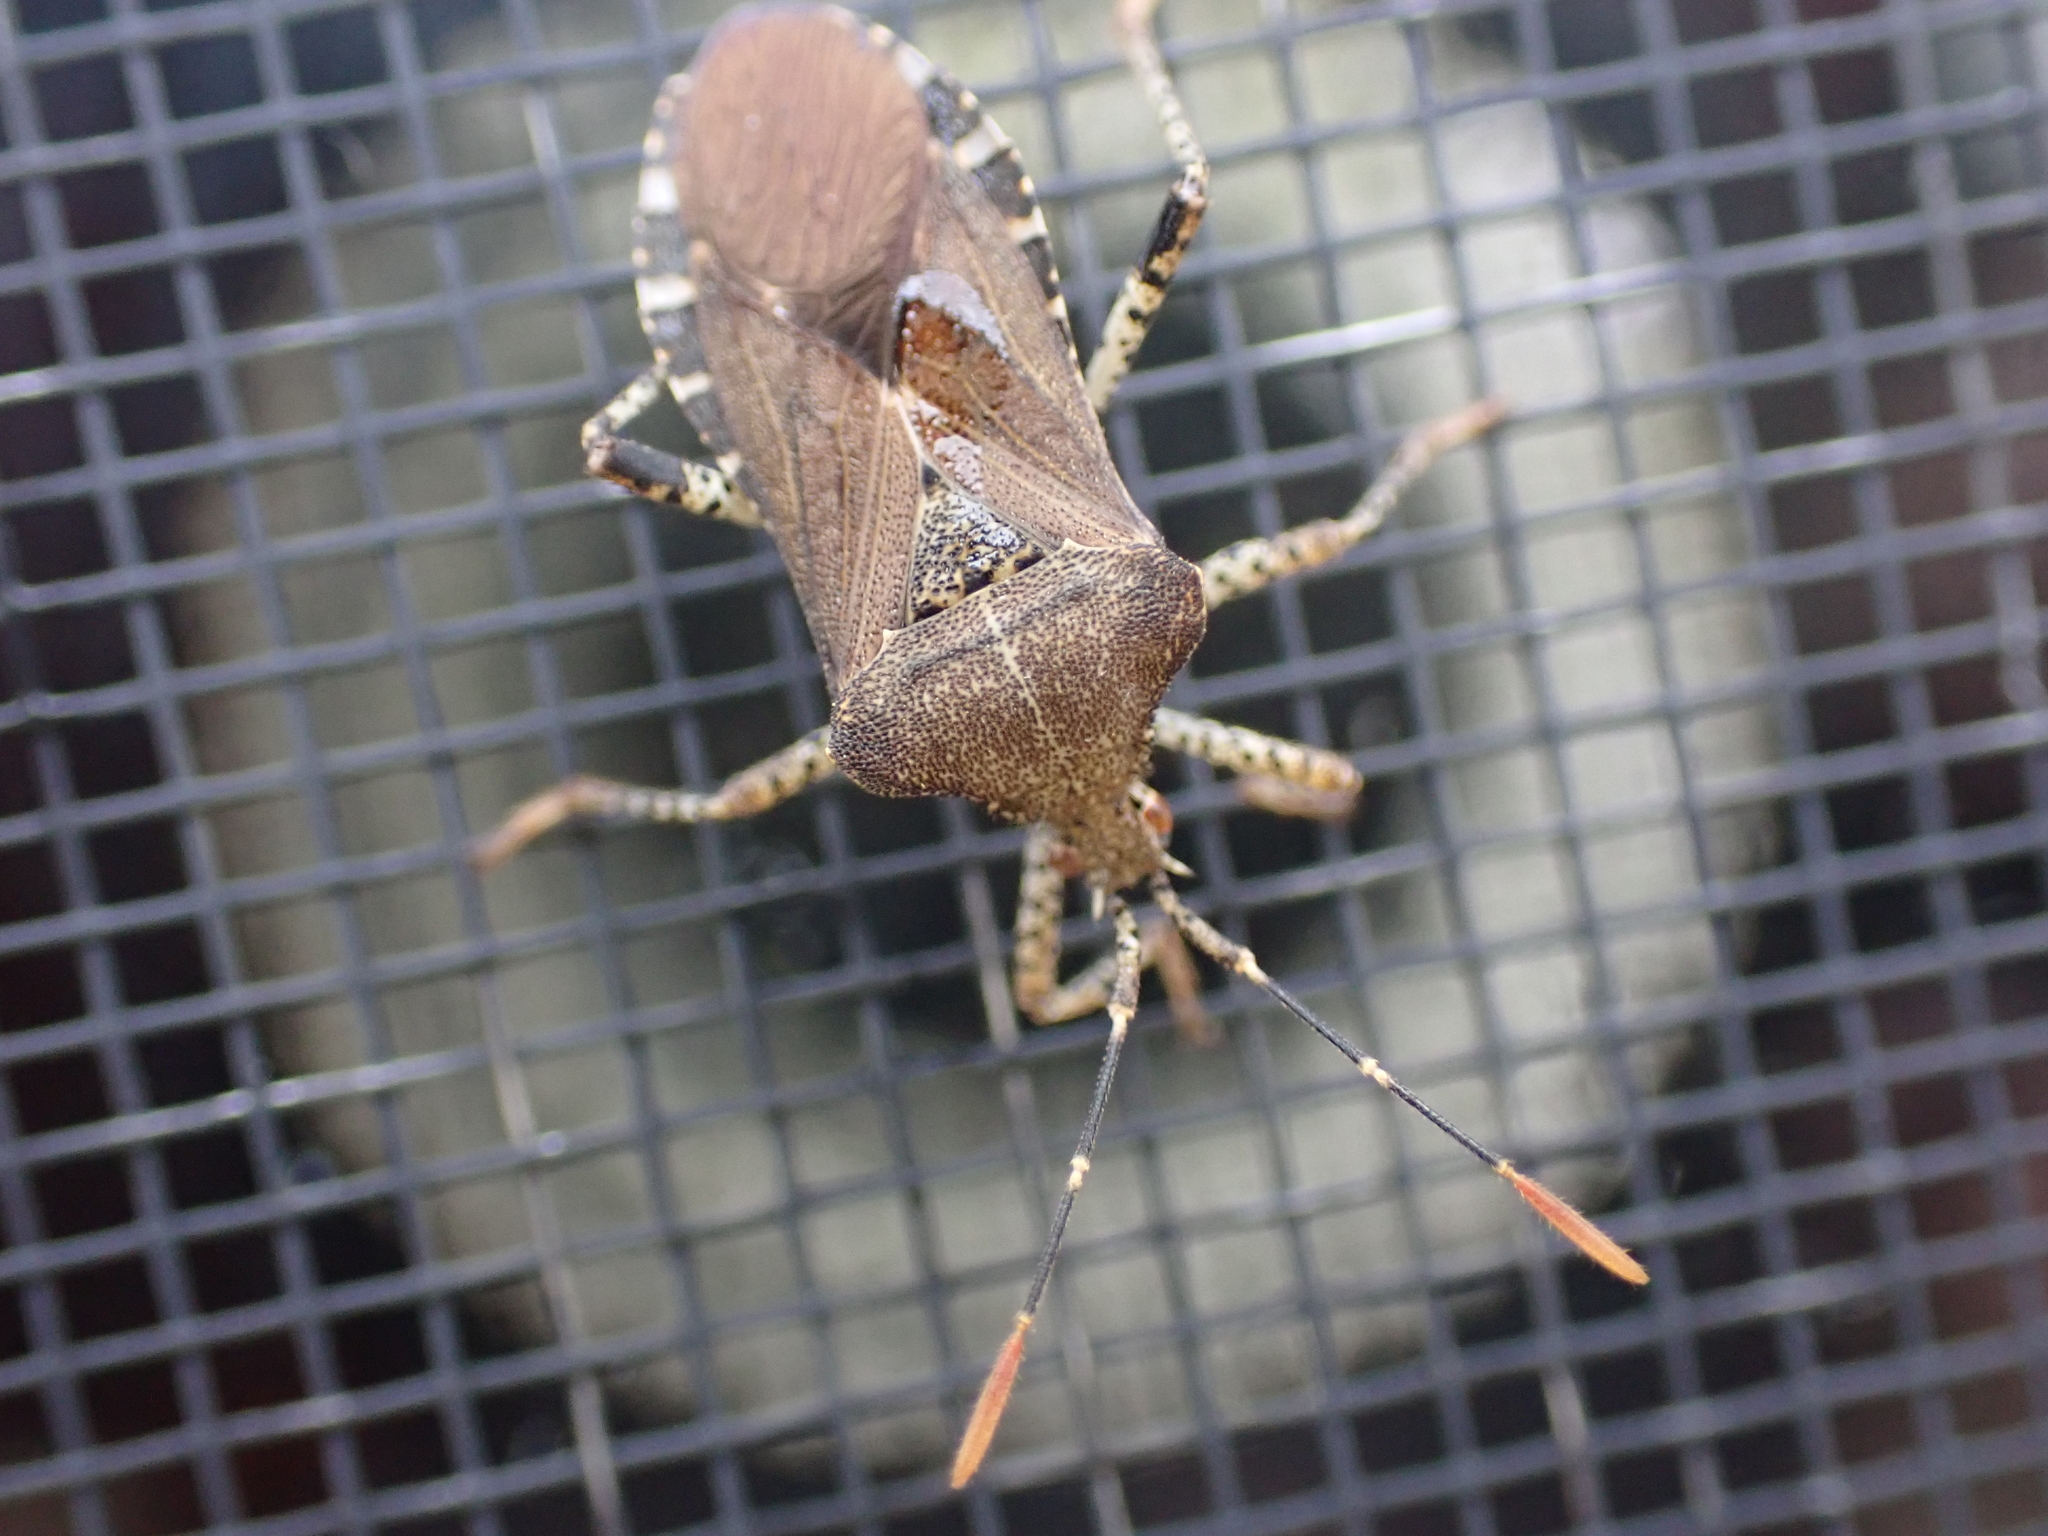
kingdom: Animalia
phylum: Arthropoda
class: Insecta
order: Hemiptera
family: Coreidae
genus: Anasa
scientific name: Anasa armigera
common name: Horned squash bug
